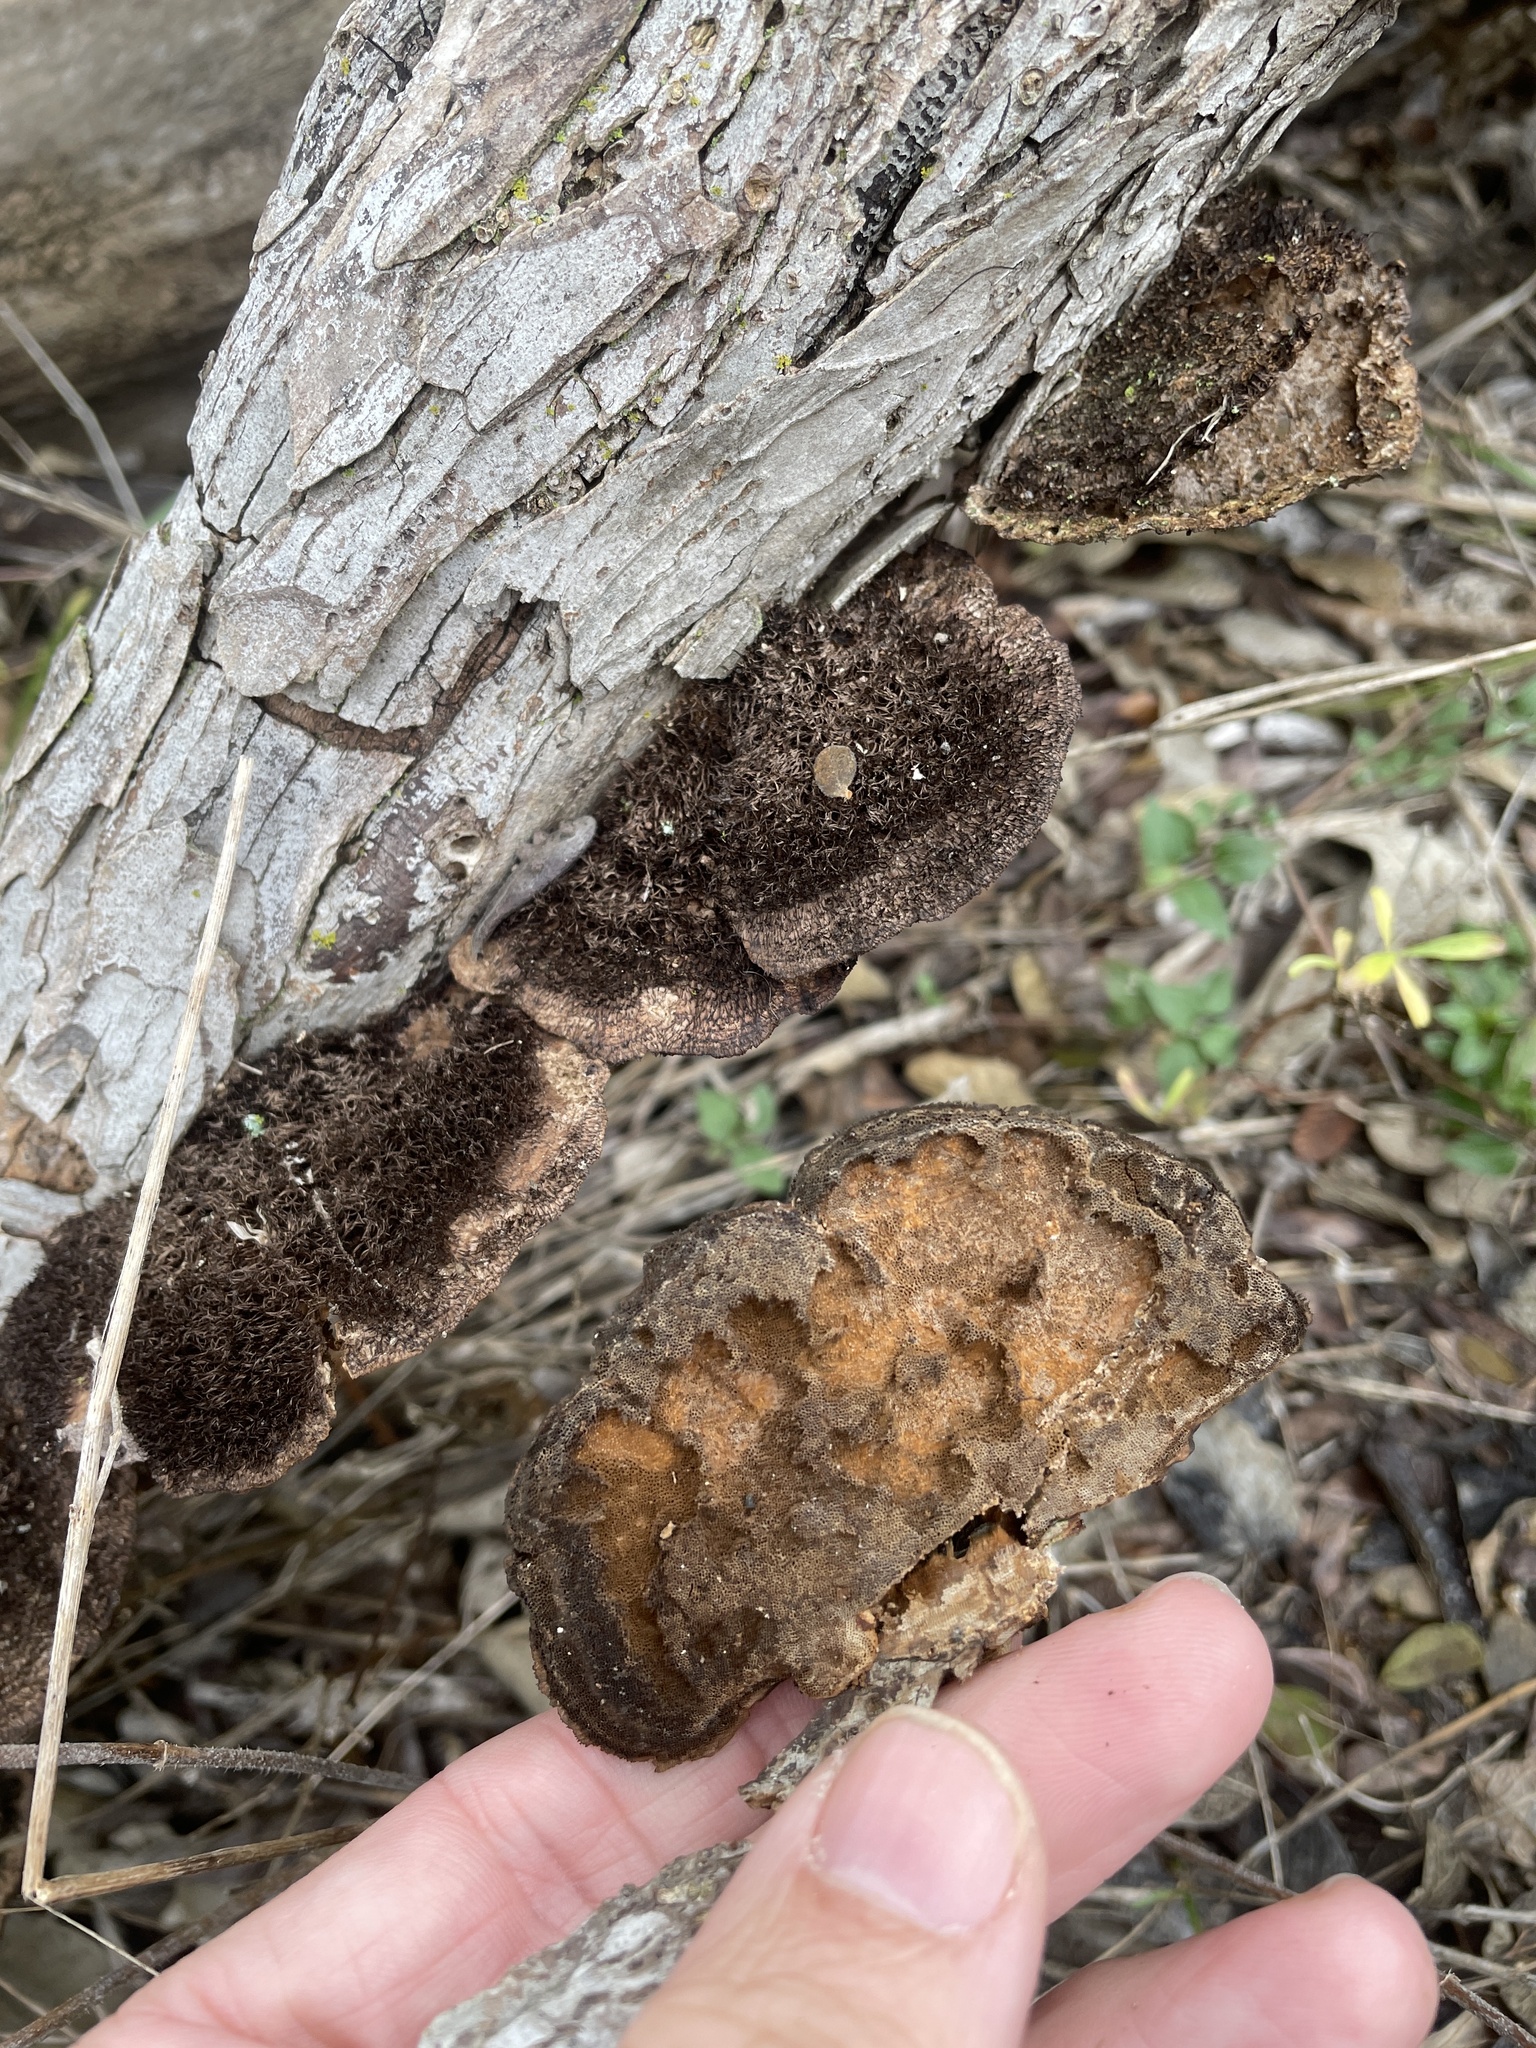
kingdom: Fungi
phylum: Basidiomycota
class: Agaricomycetes
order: Polyporales
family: Cerrenaceae
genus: Cerrena
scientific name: Cerrena hydnoides
